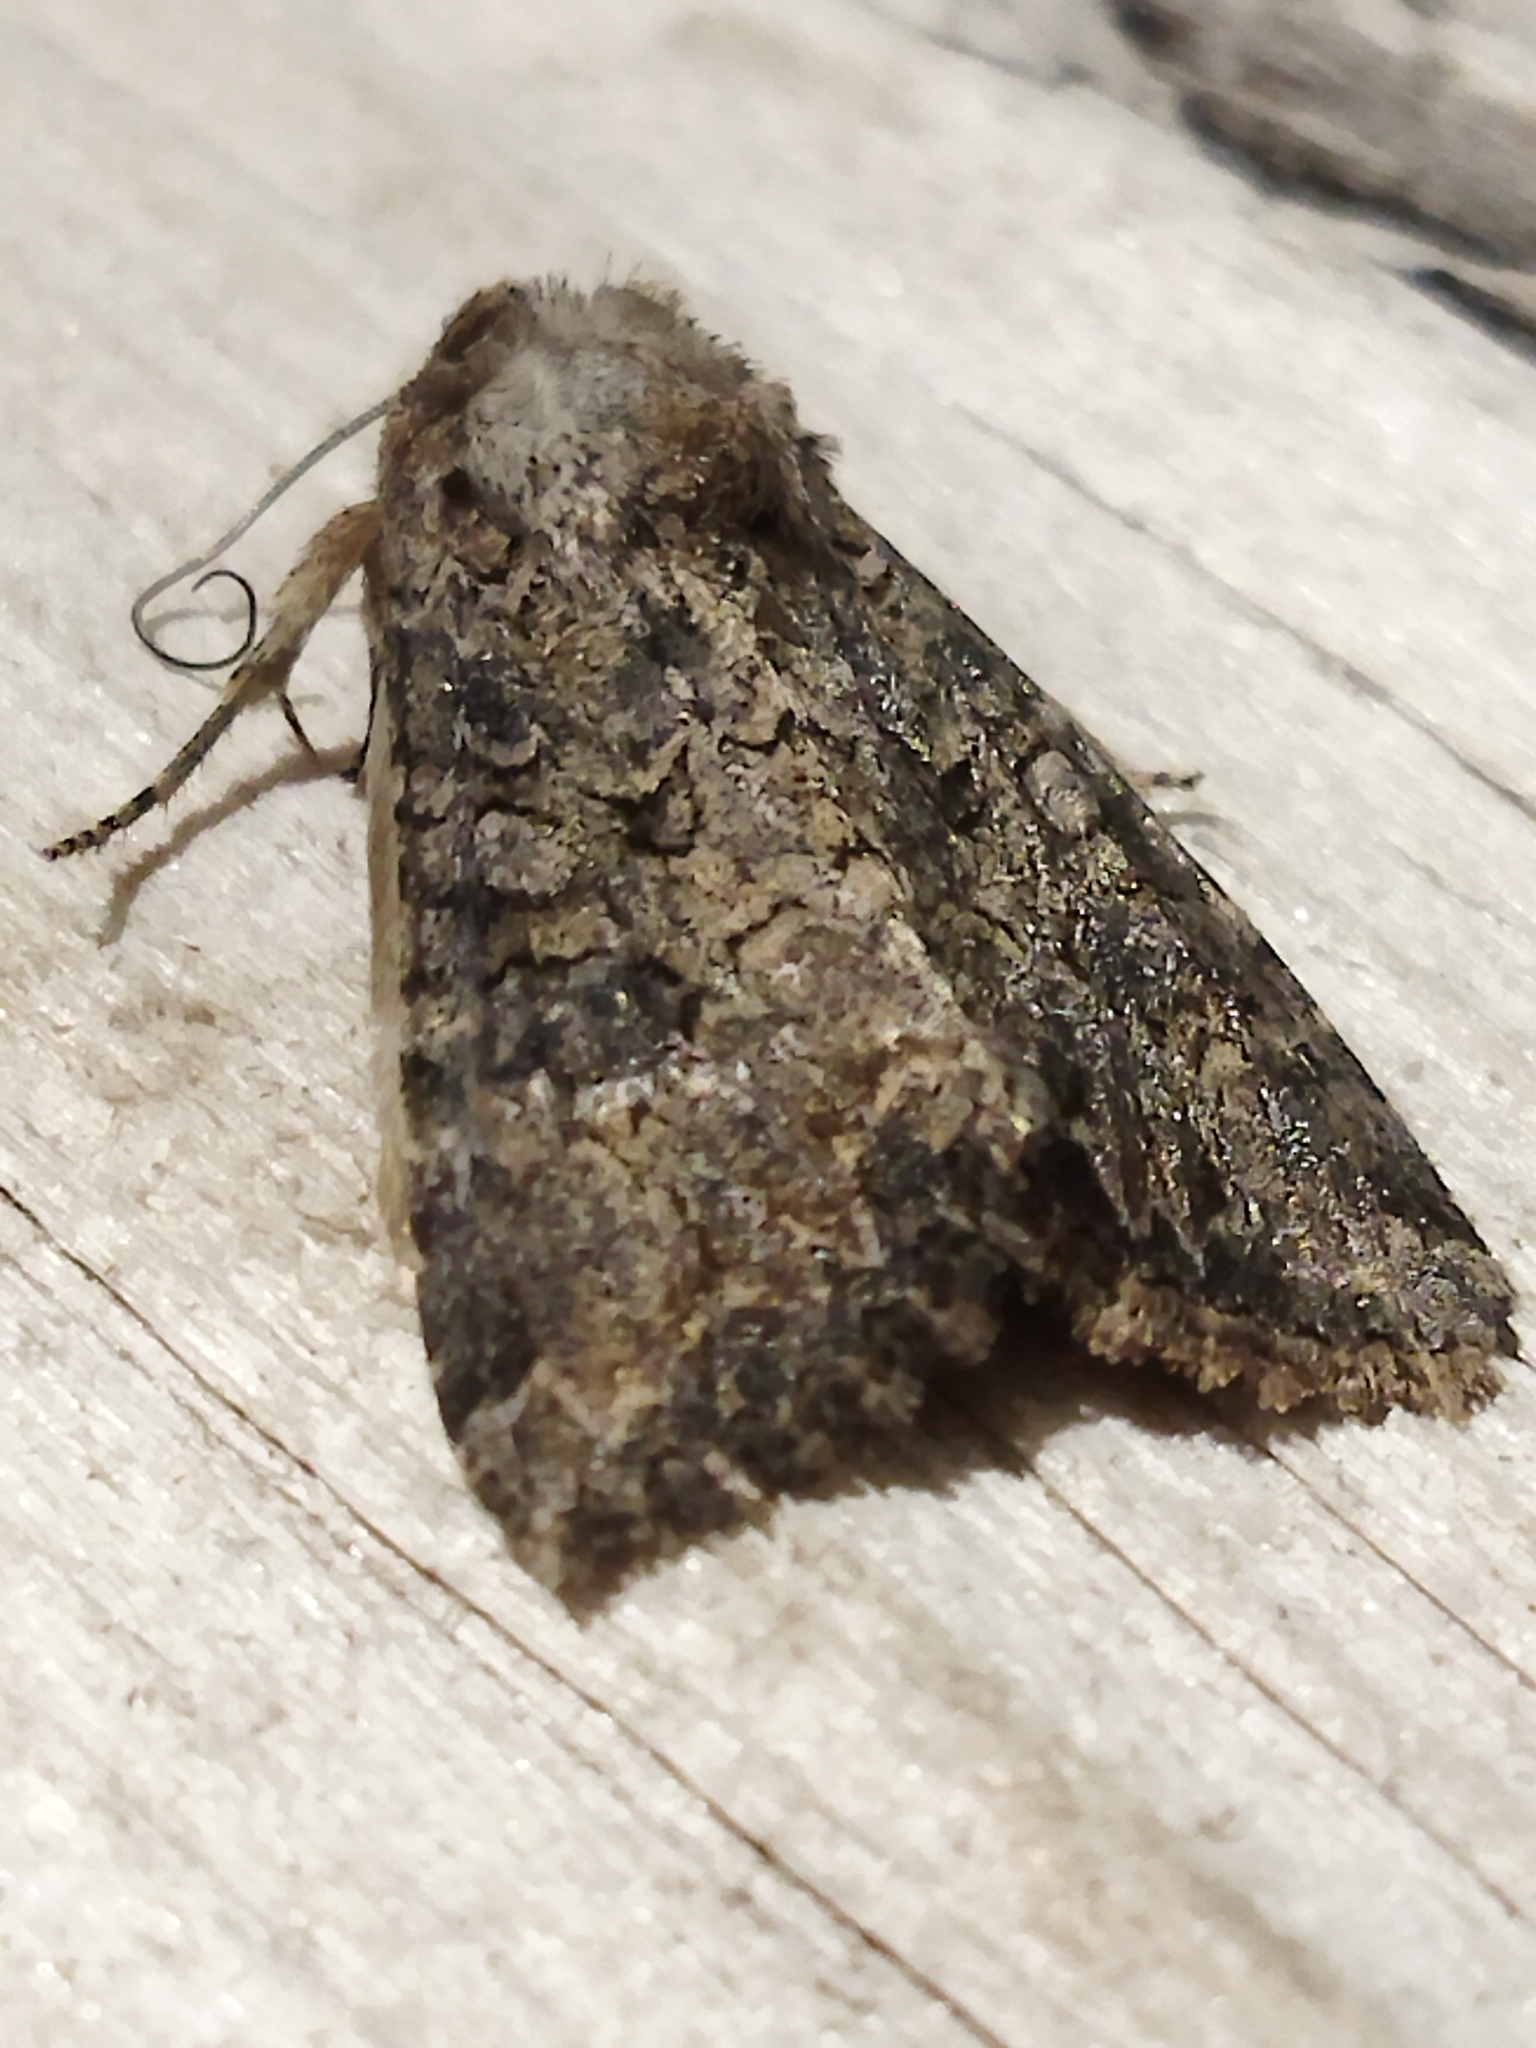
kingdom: Animalia
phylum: Arthropoda
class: Insecta
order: Lepidoptera
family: Noctuidae
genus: Anarta
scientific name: Anarta trifolii
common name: Clover cutworm moth
